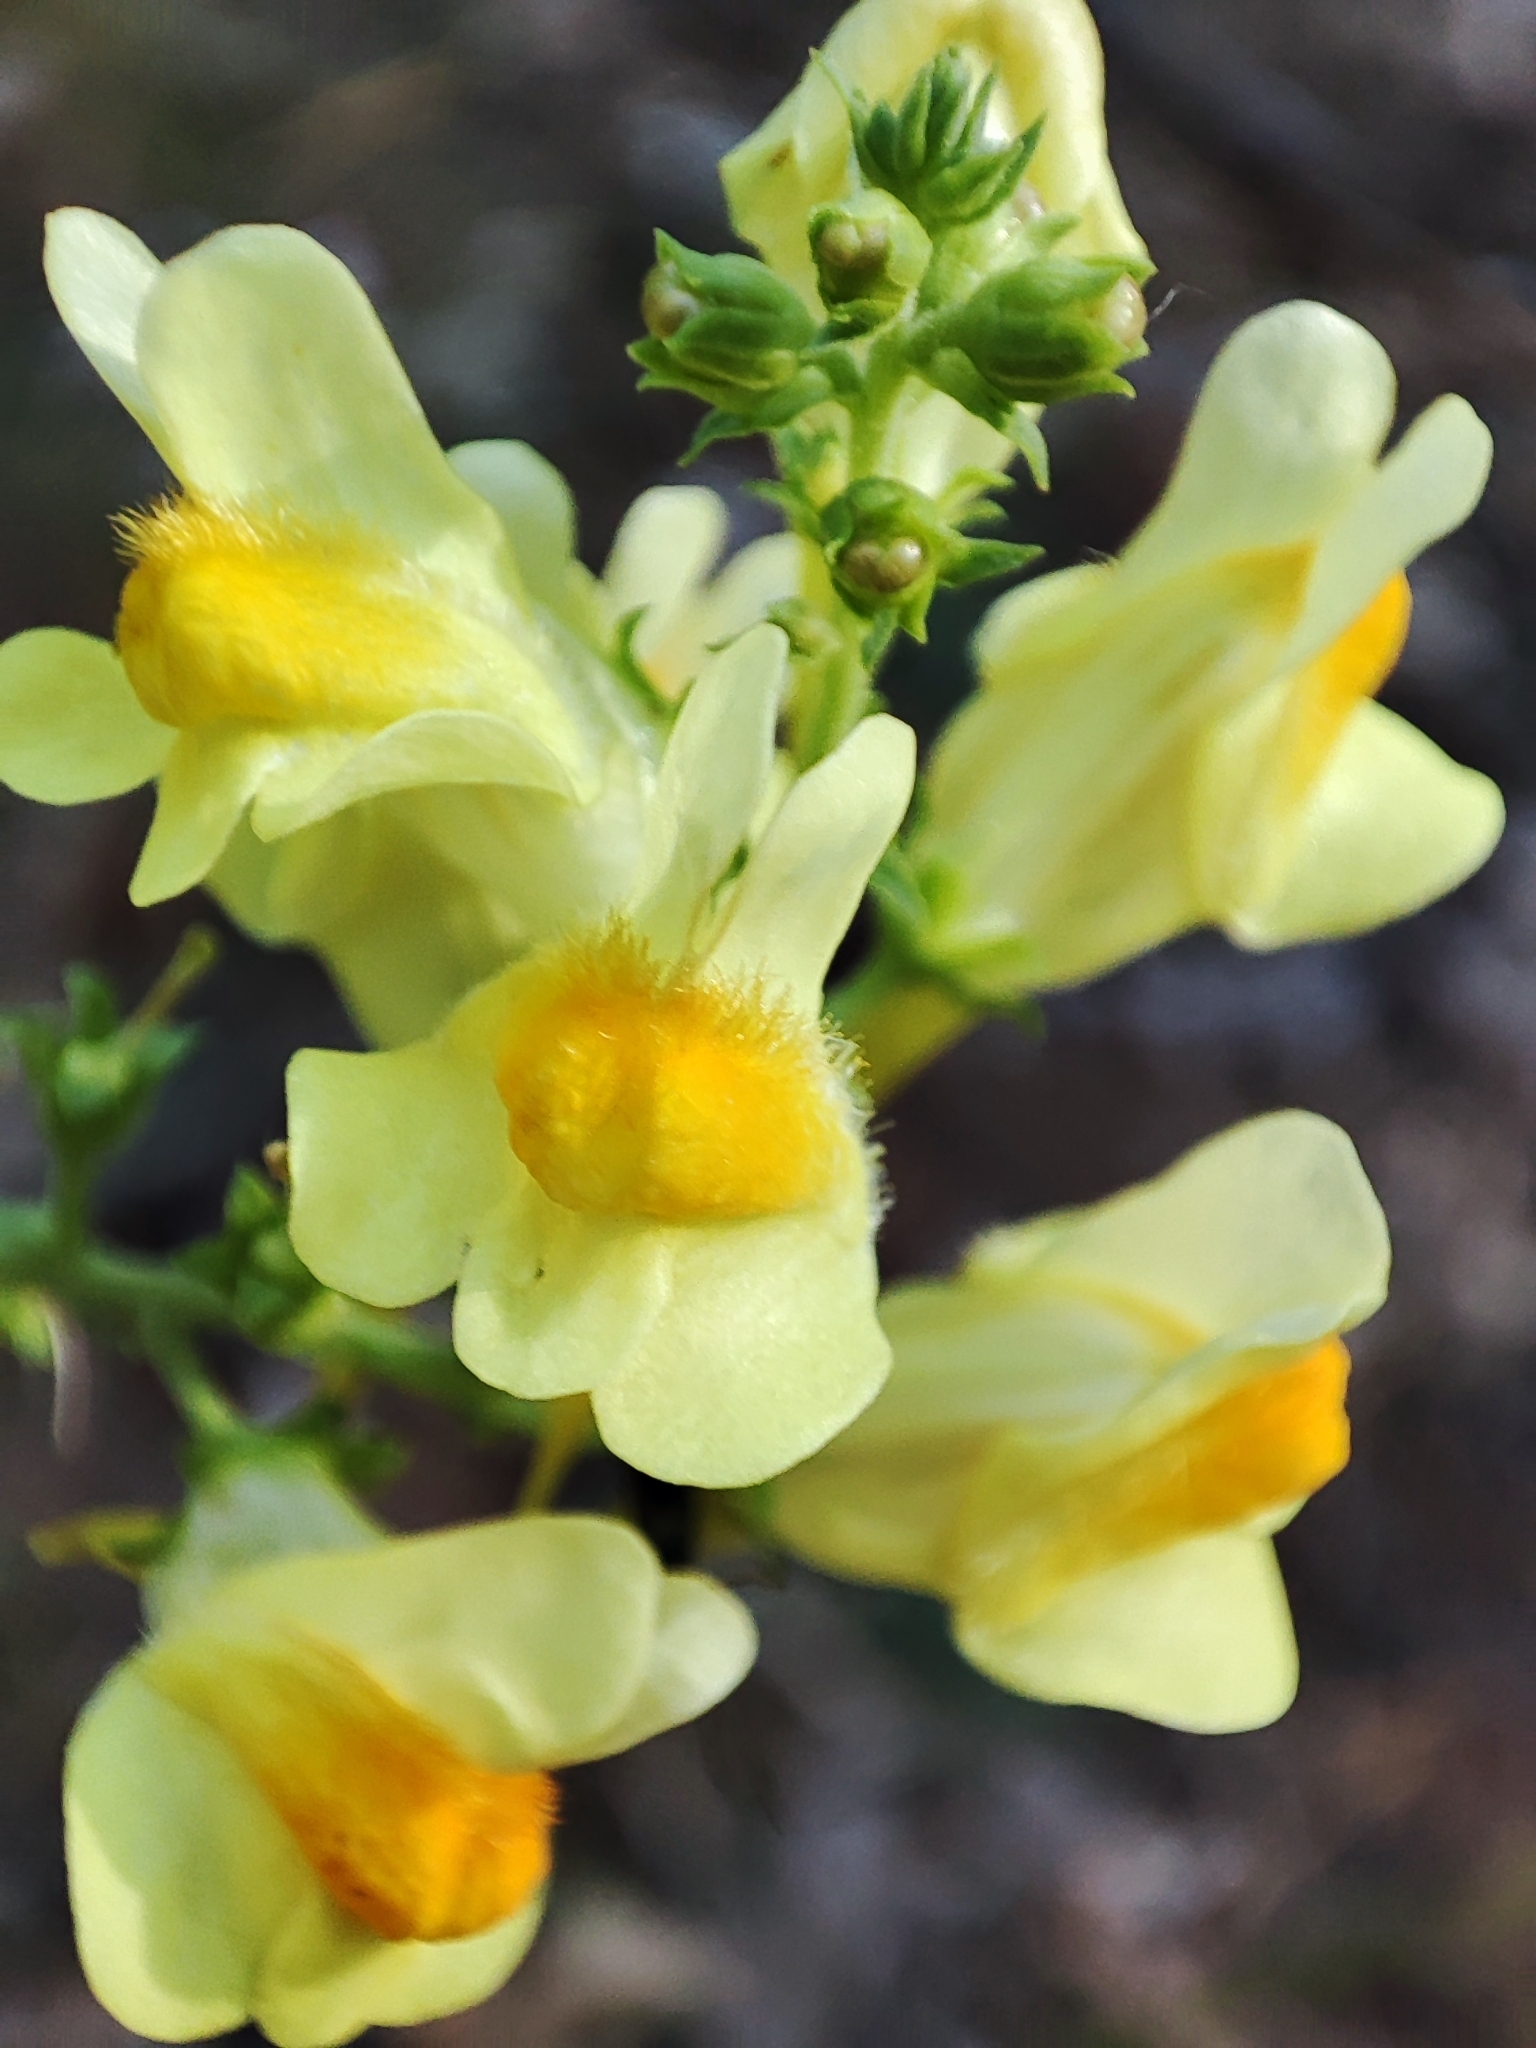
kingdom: Plantae
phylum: Tracheophyta
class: Magnoliopsida
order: Lamiales
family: Plantaginaceae
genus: Linaria
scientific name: Linaria vulgaris
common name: Butter and eggs
